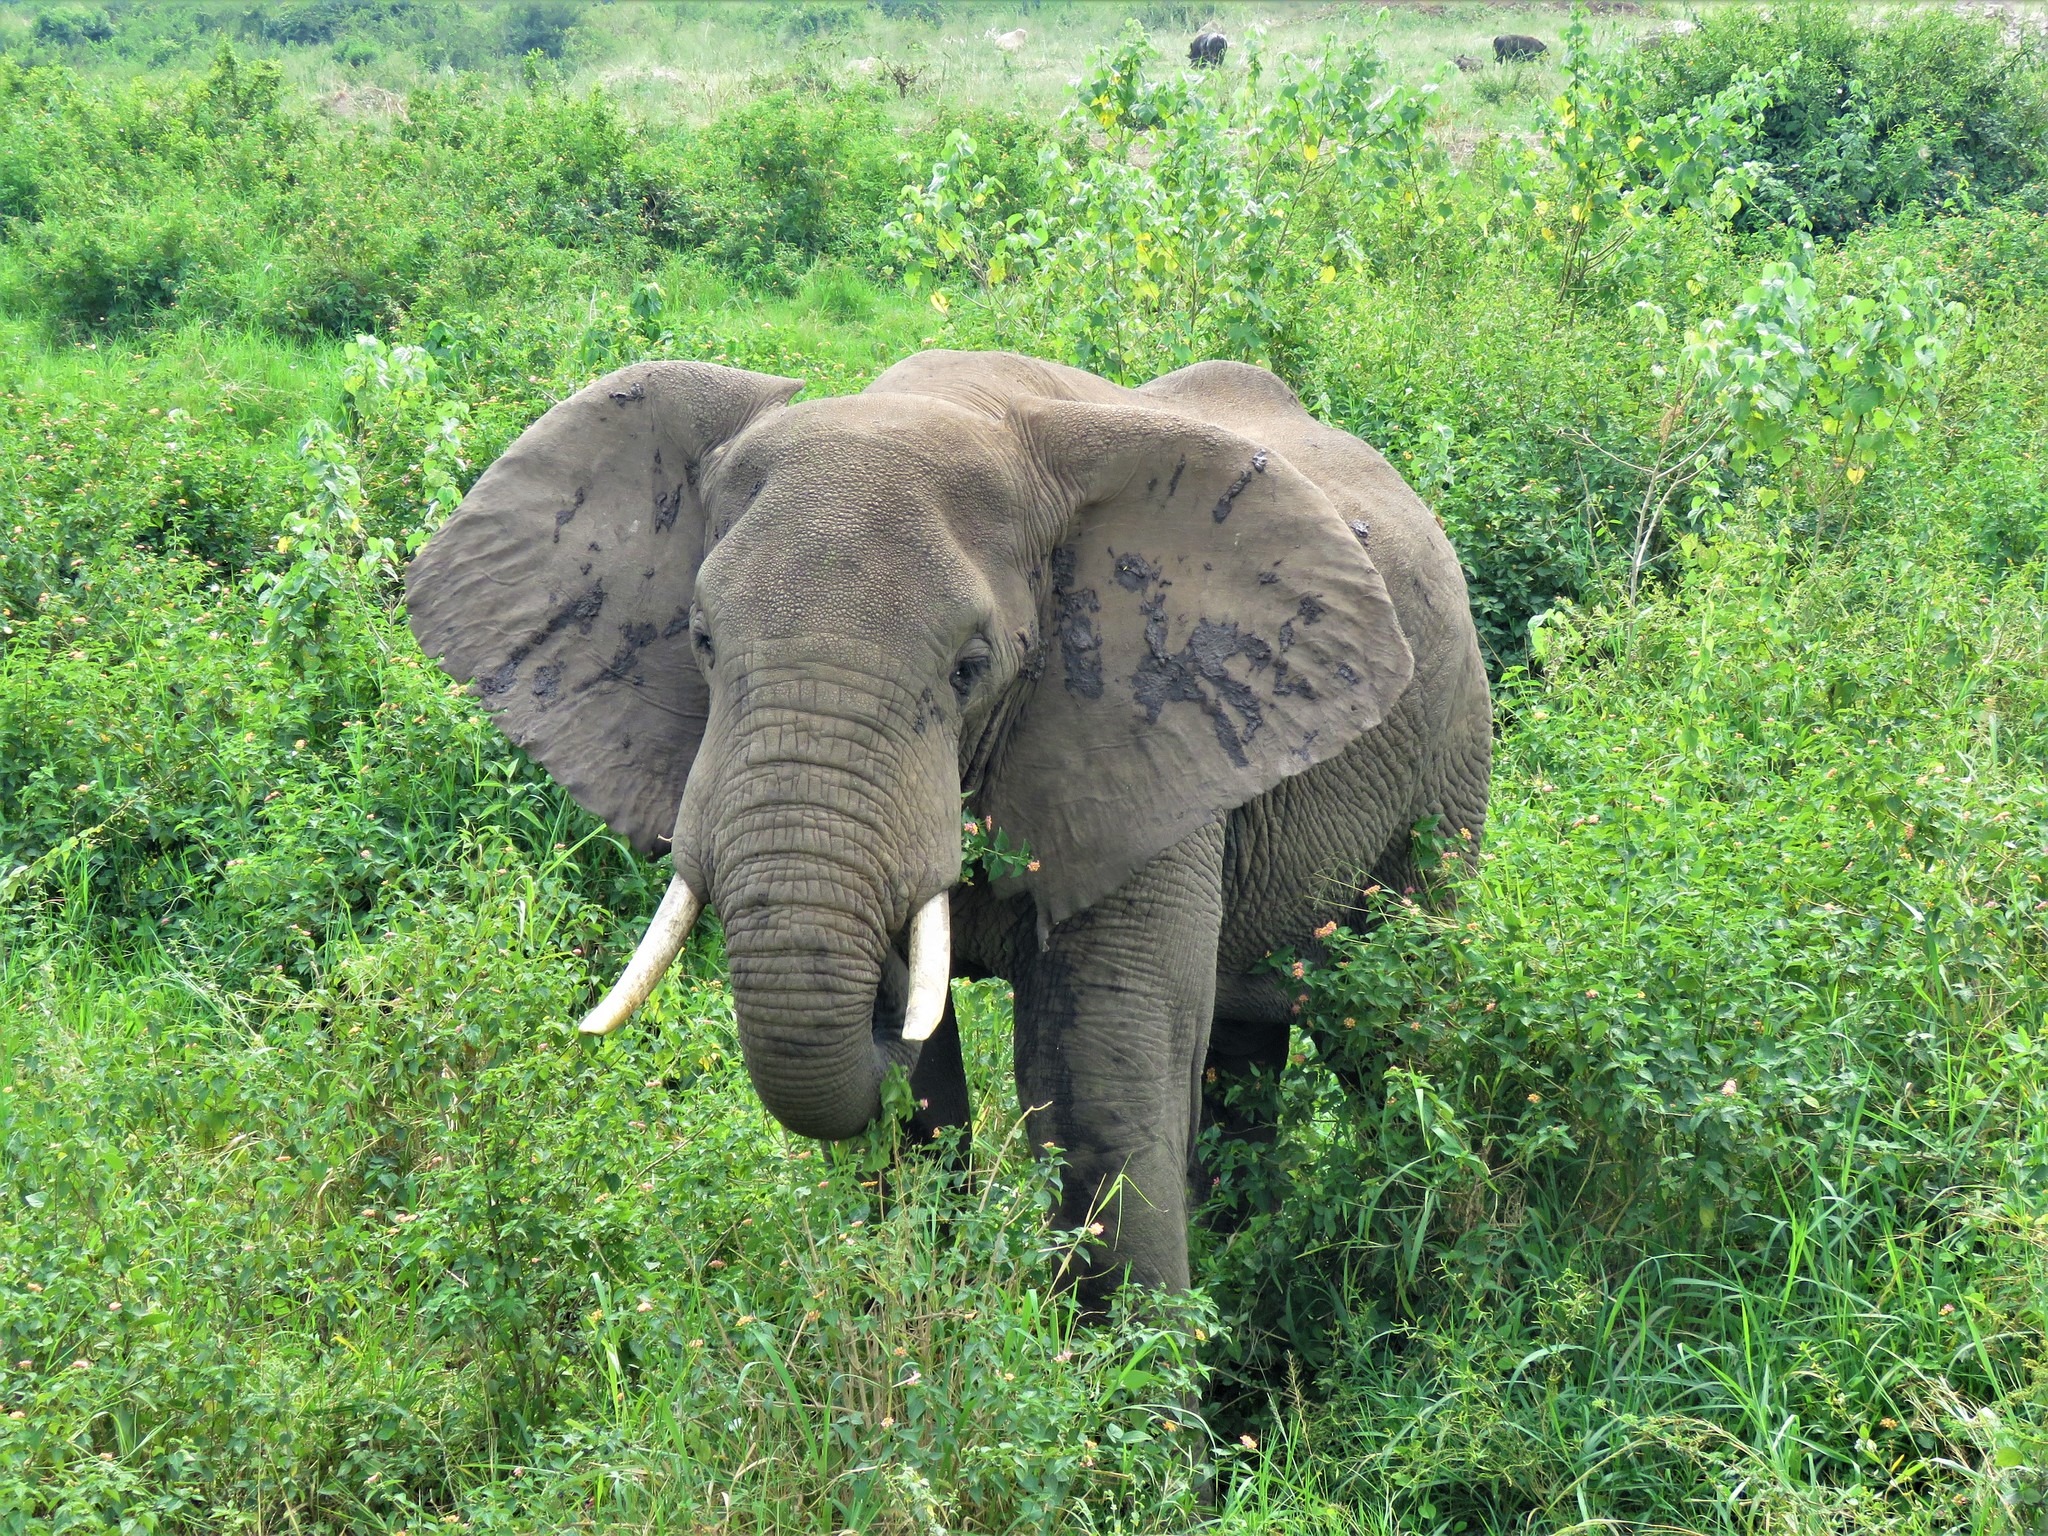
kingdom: Animalia
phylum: Chordata
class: Mammalia
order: Proboscidea
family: Elephantidae
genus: Loxodonta
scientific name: Loxodonta africana
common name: African elephant
